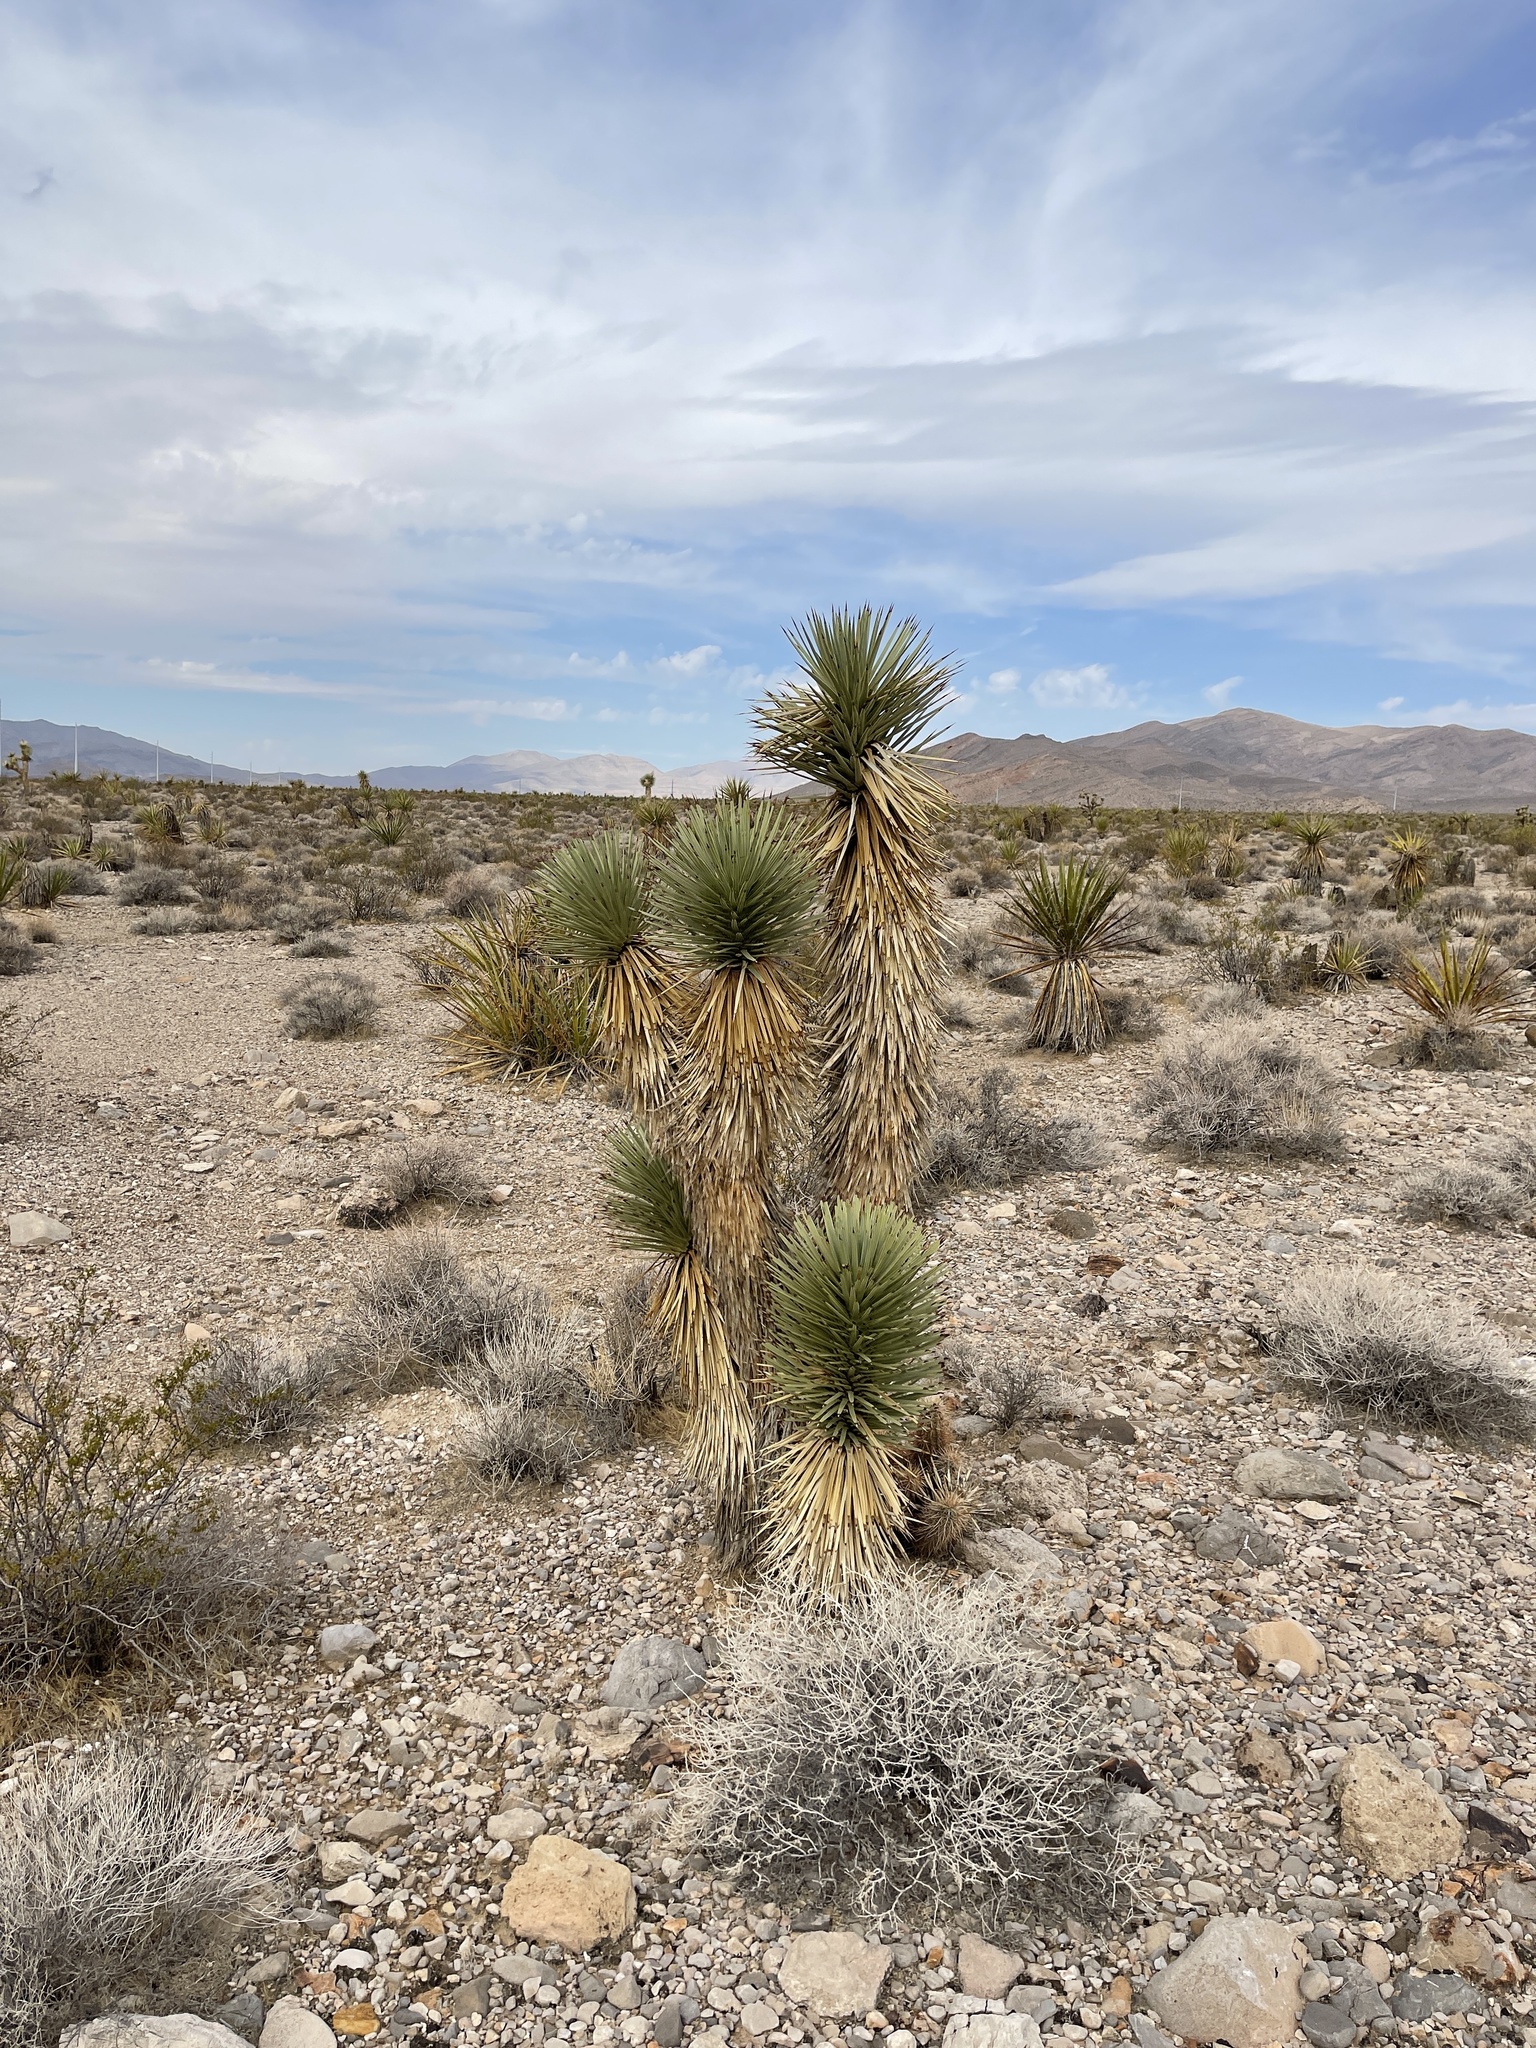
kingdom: Plantae
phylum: Tracheophyta
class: Liliopsida
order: Asparagales
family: Asparagaceae
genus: Yucca
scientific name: Yucca brevifolia
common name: Joshua tree
